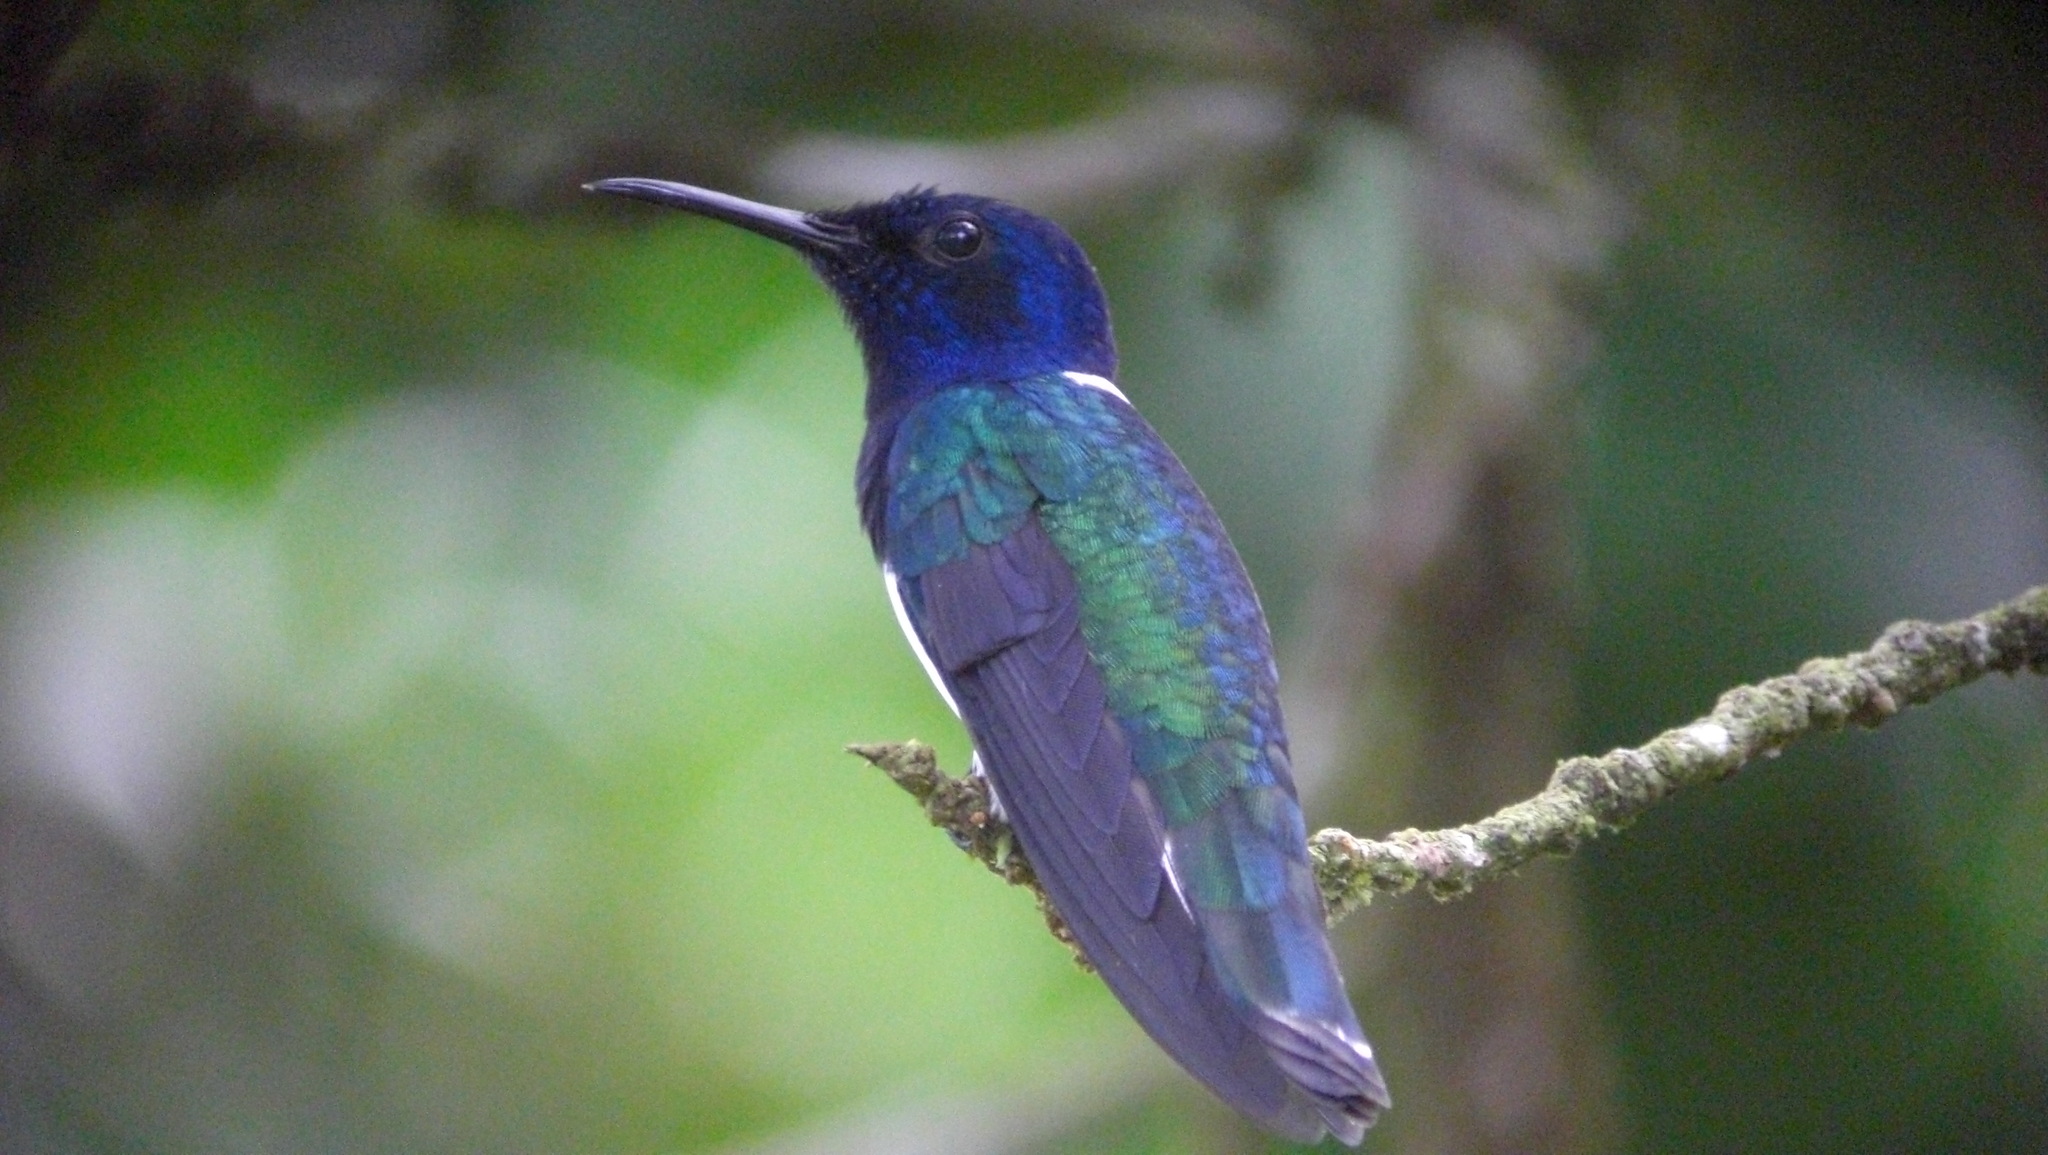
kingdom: Animalia
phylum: Chordata
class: Aves
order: Apodiformes
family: Trochilidae
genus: Florisuga
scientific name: Florisuga mellivora
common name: White-necked jacobin
